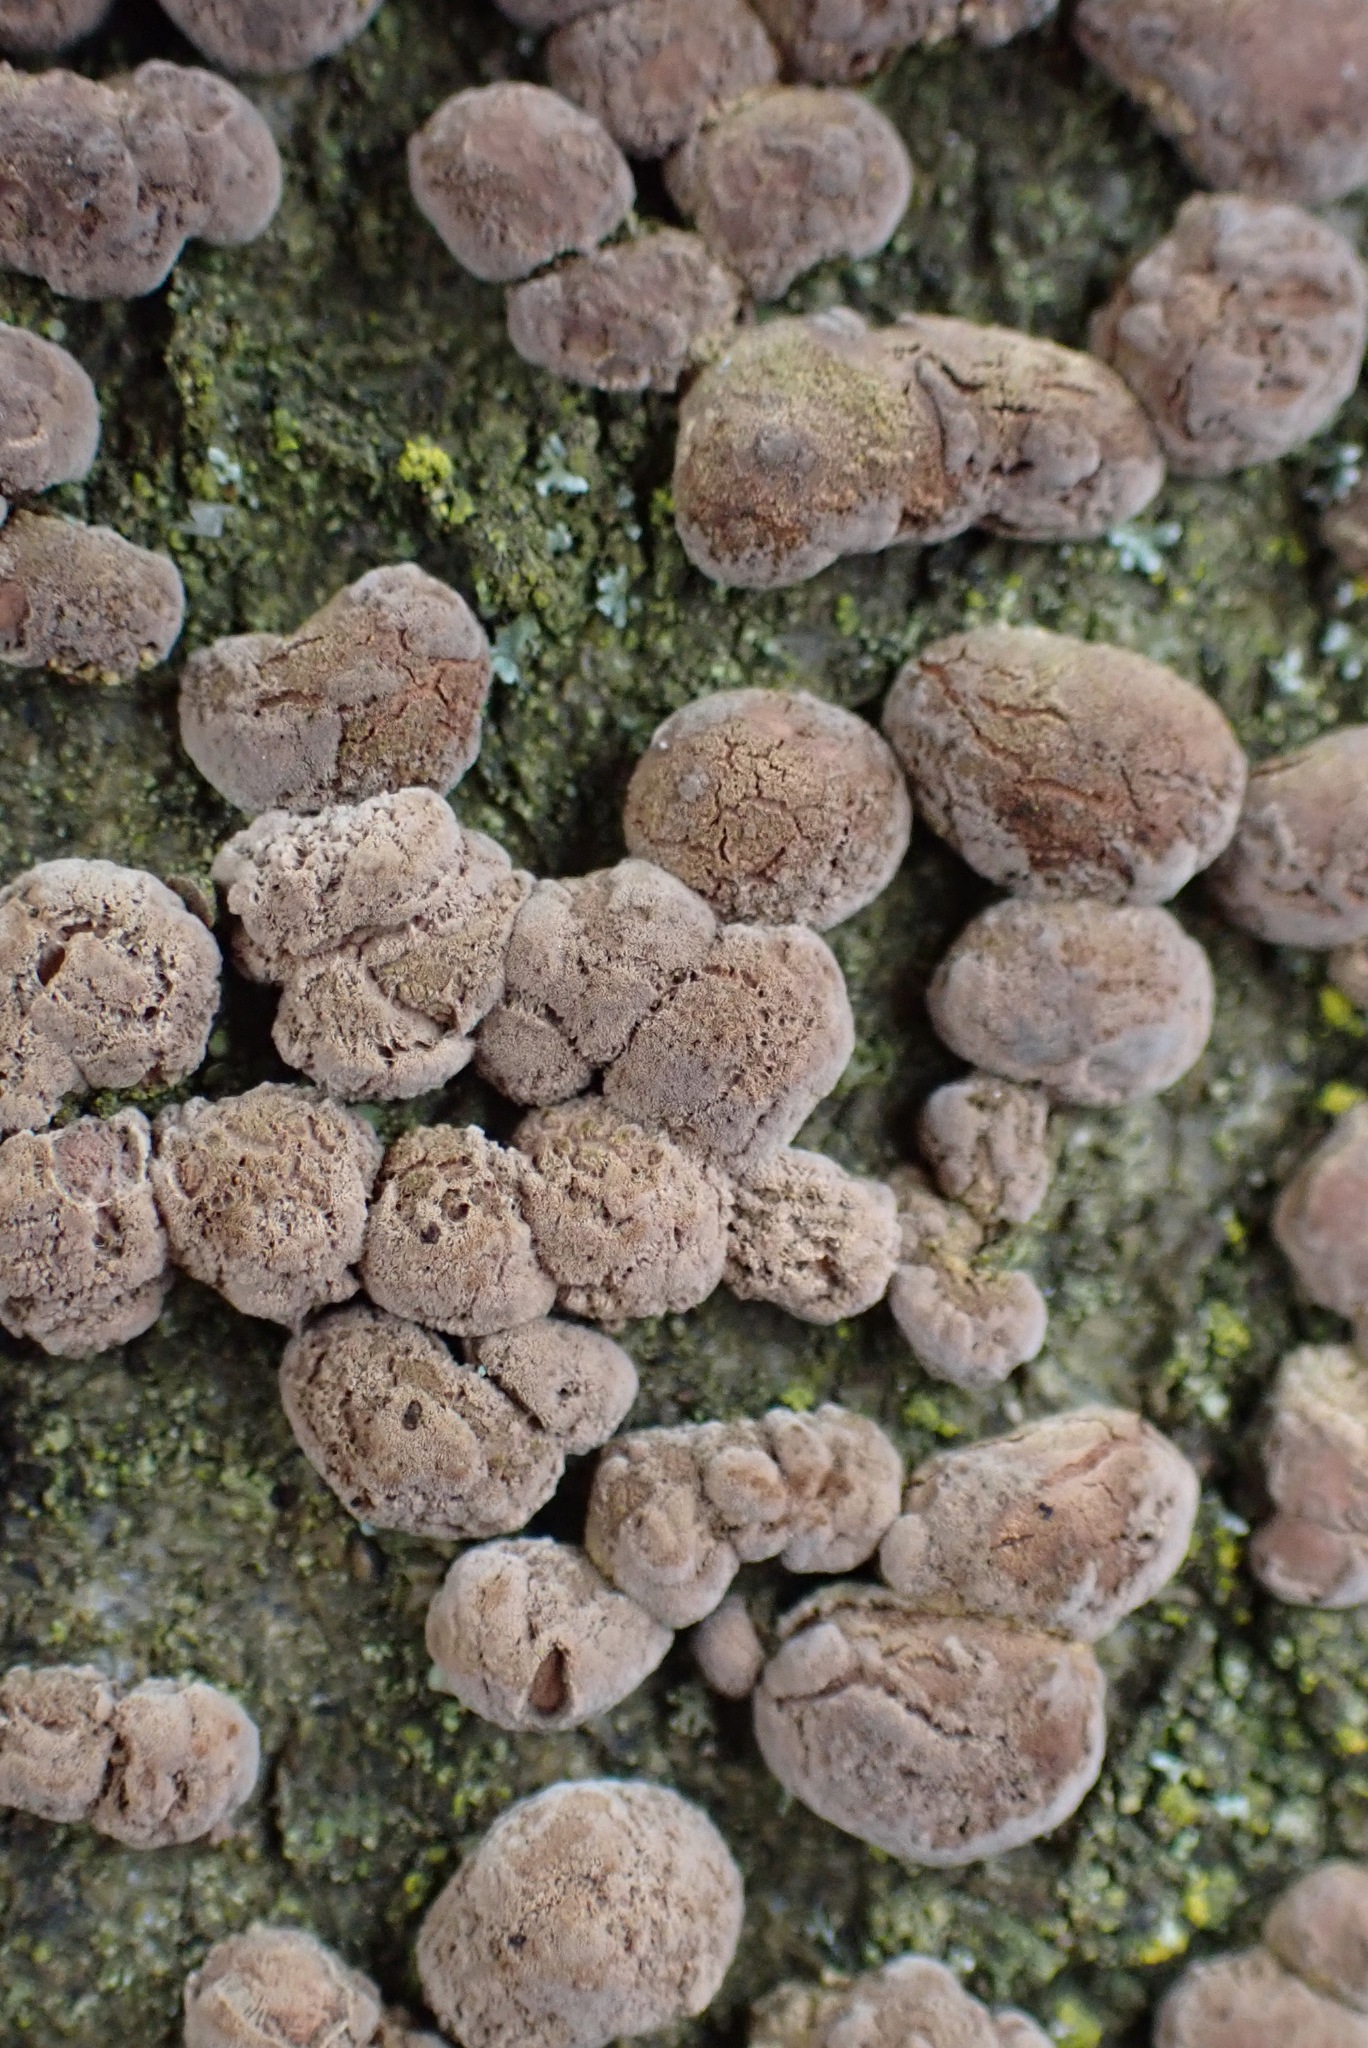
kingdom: Fungi
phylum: Ascomycota
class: Sordariomycetes
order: Xylariales
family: Hypoxylaceae
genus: Hypoxylon
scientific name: Hypoxylon fragiforme
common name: Beech woodwart
